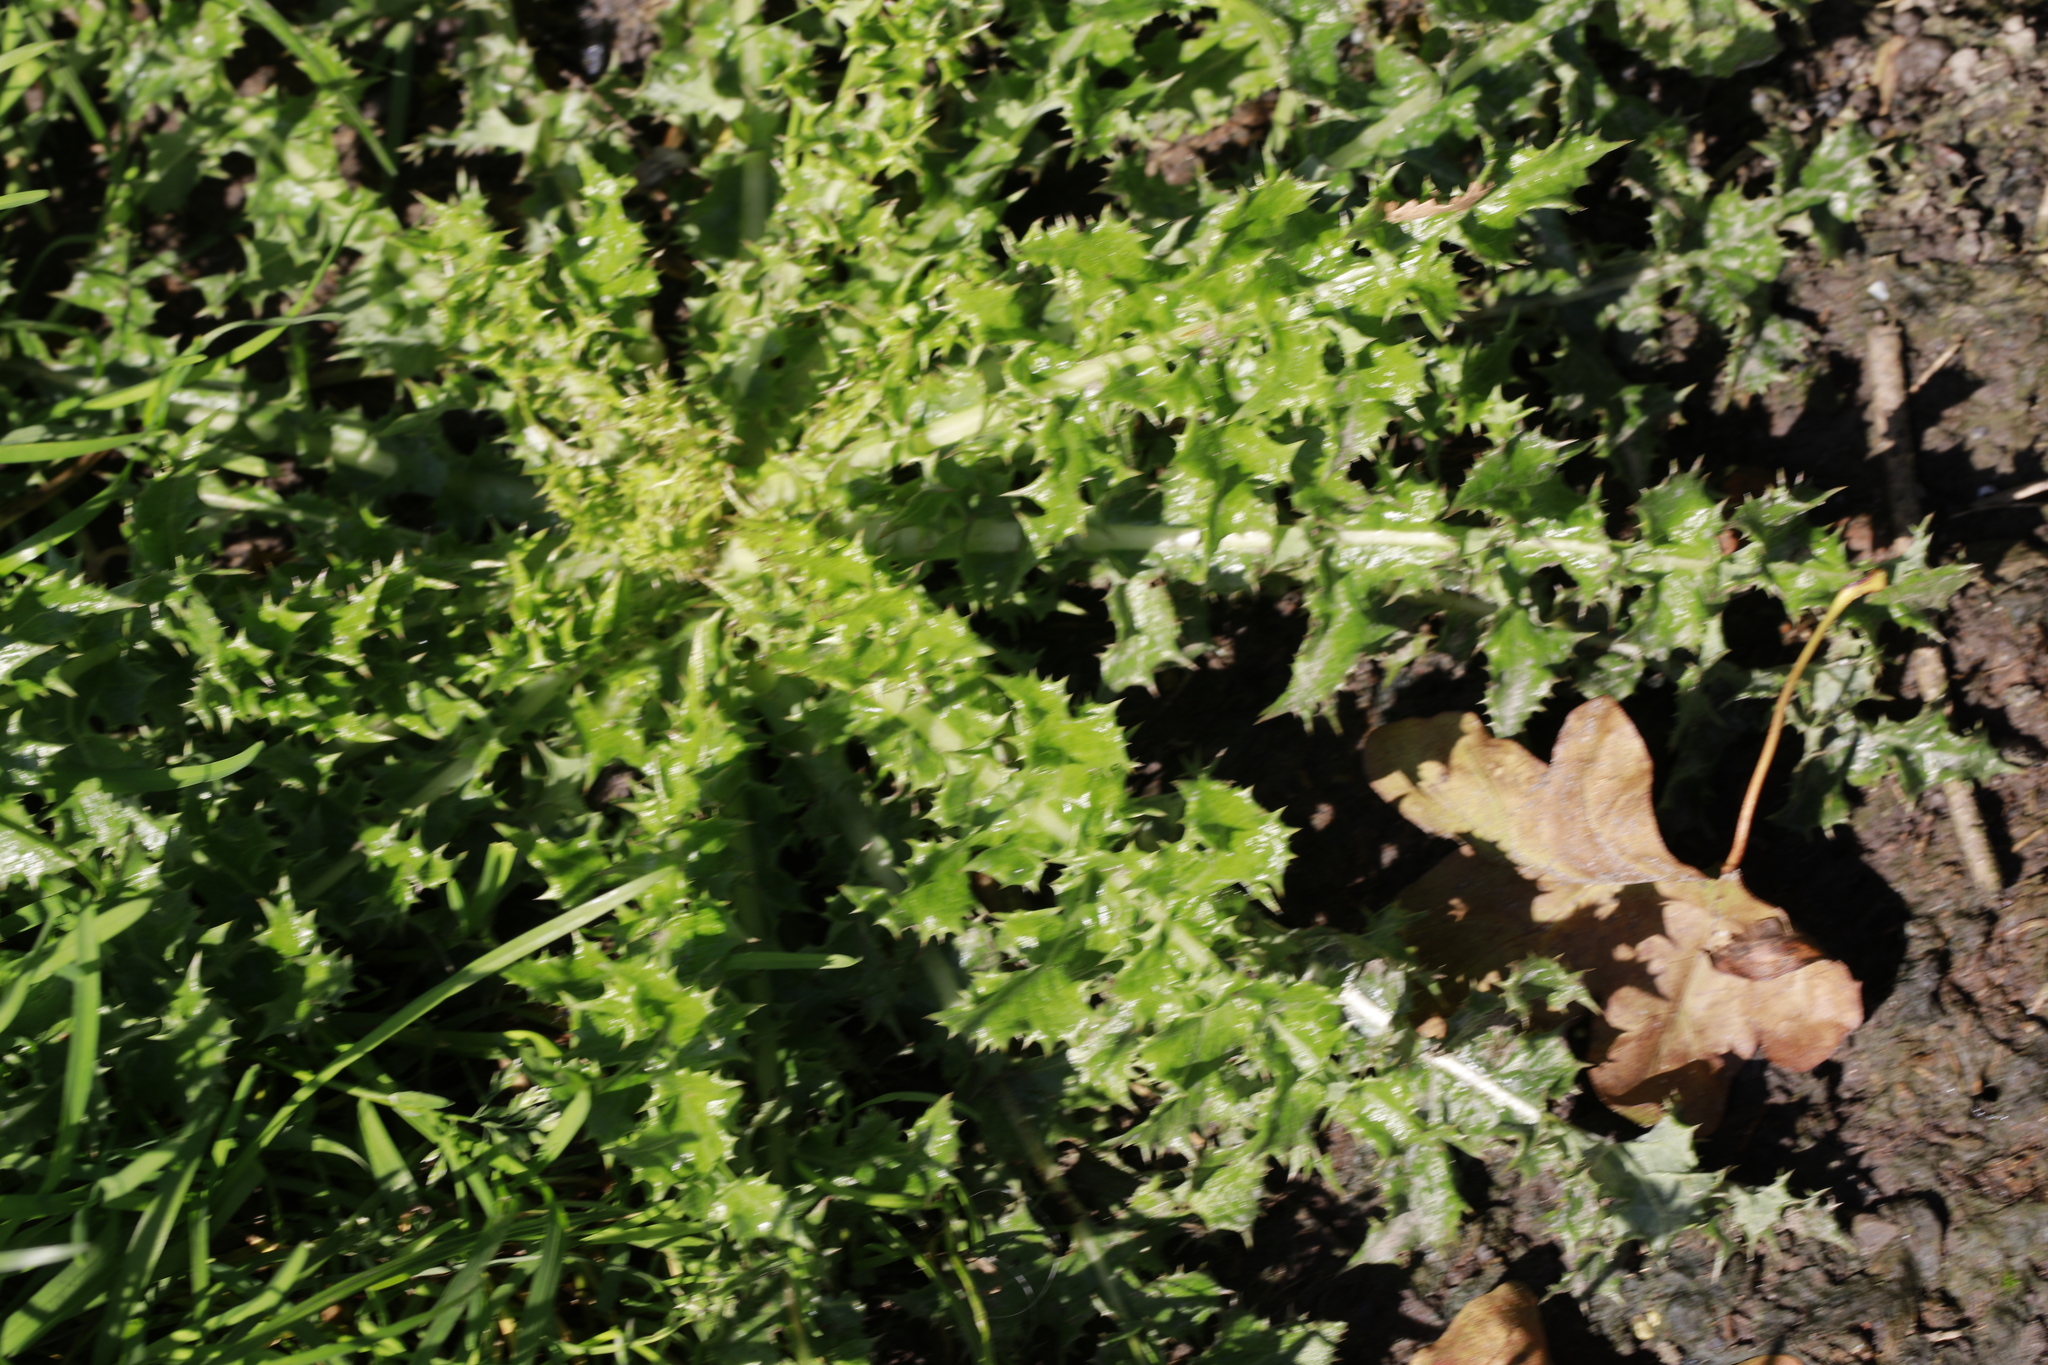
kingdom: Plantae
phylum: Tracheophyta
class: Magnoliopsida
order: Asterales
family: Asteraceae
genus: Sonchus
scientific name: Sonchus asper
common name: Prickly sow-thistle
